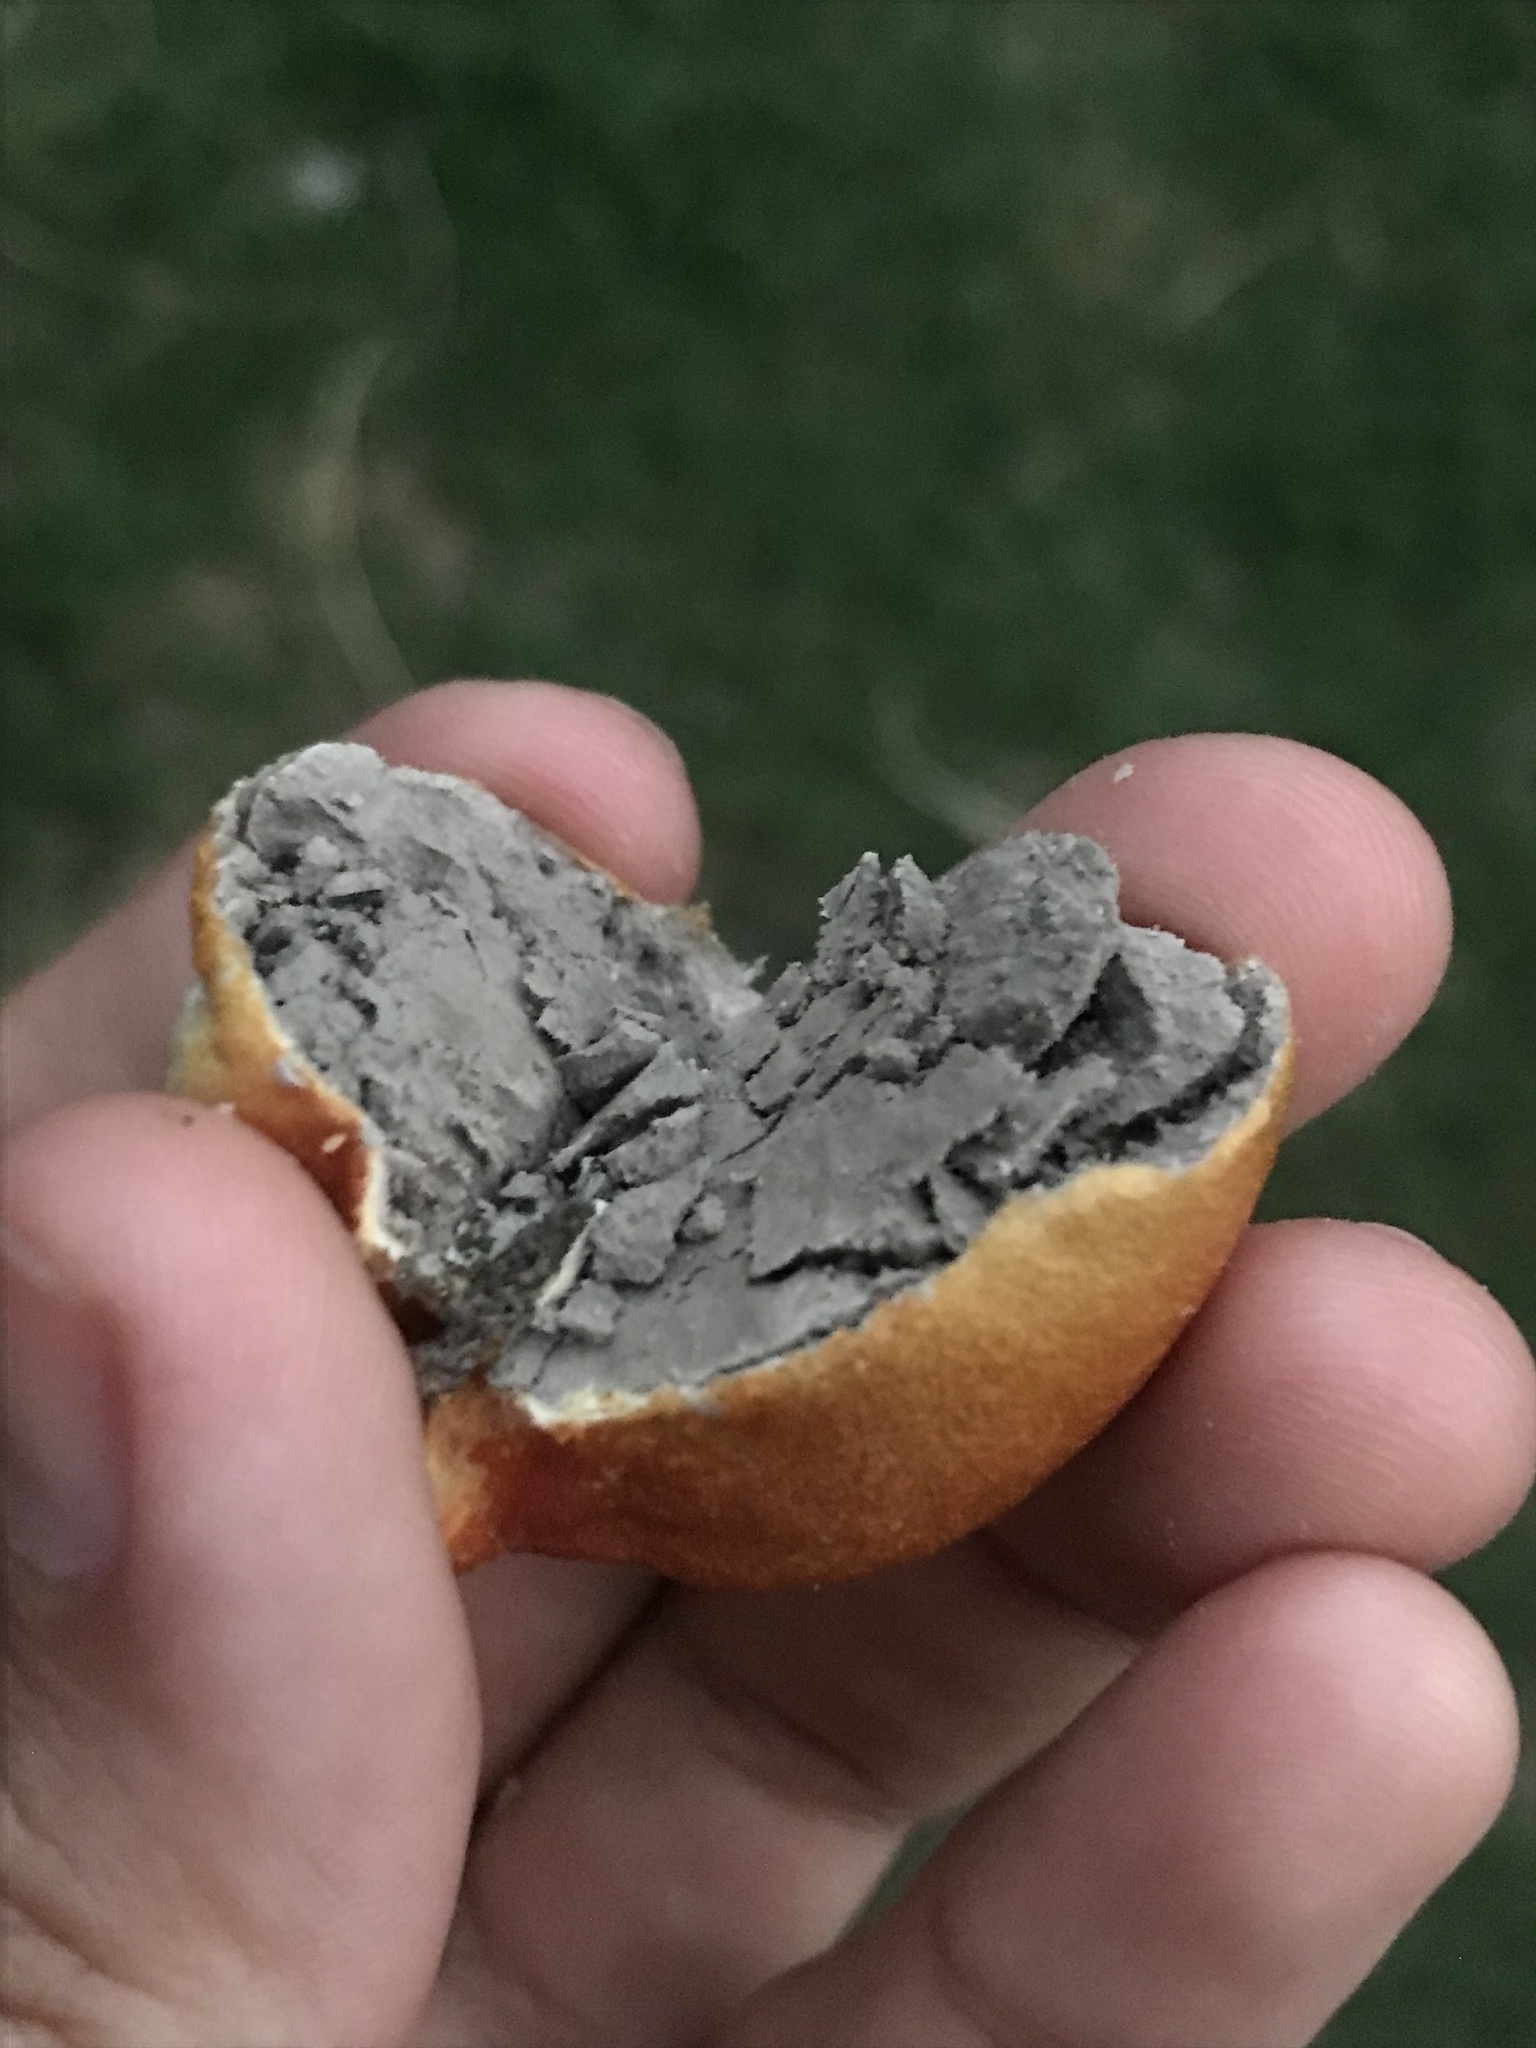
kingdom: Protozoa
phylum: Mycetozoa
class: Myxomycetes
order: Cribrariales
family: Tubiferaceae
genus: Lycogala
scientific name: Lycogala flavofuscum
